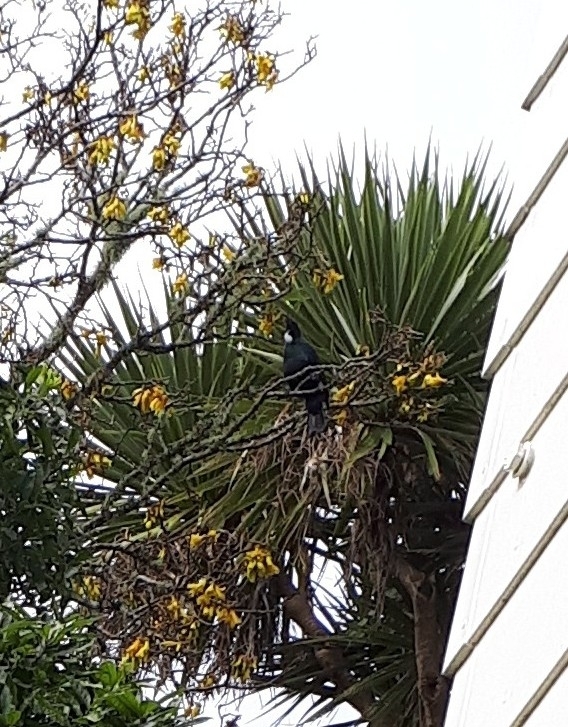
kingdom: Animalia
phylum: Chordata
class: Aves
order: Passeriformes
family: Meliphagidae
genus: Prosthemadera
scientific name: Prosthemadera novaeseelandiae
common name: Tui
